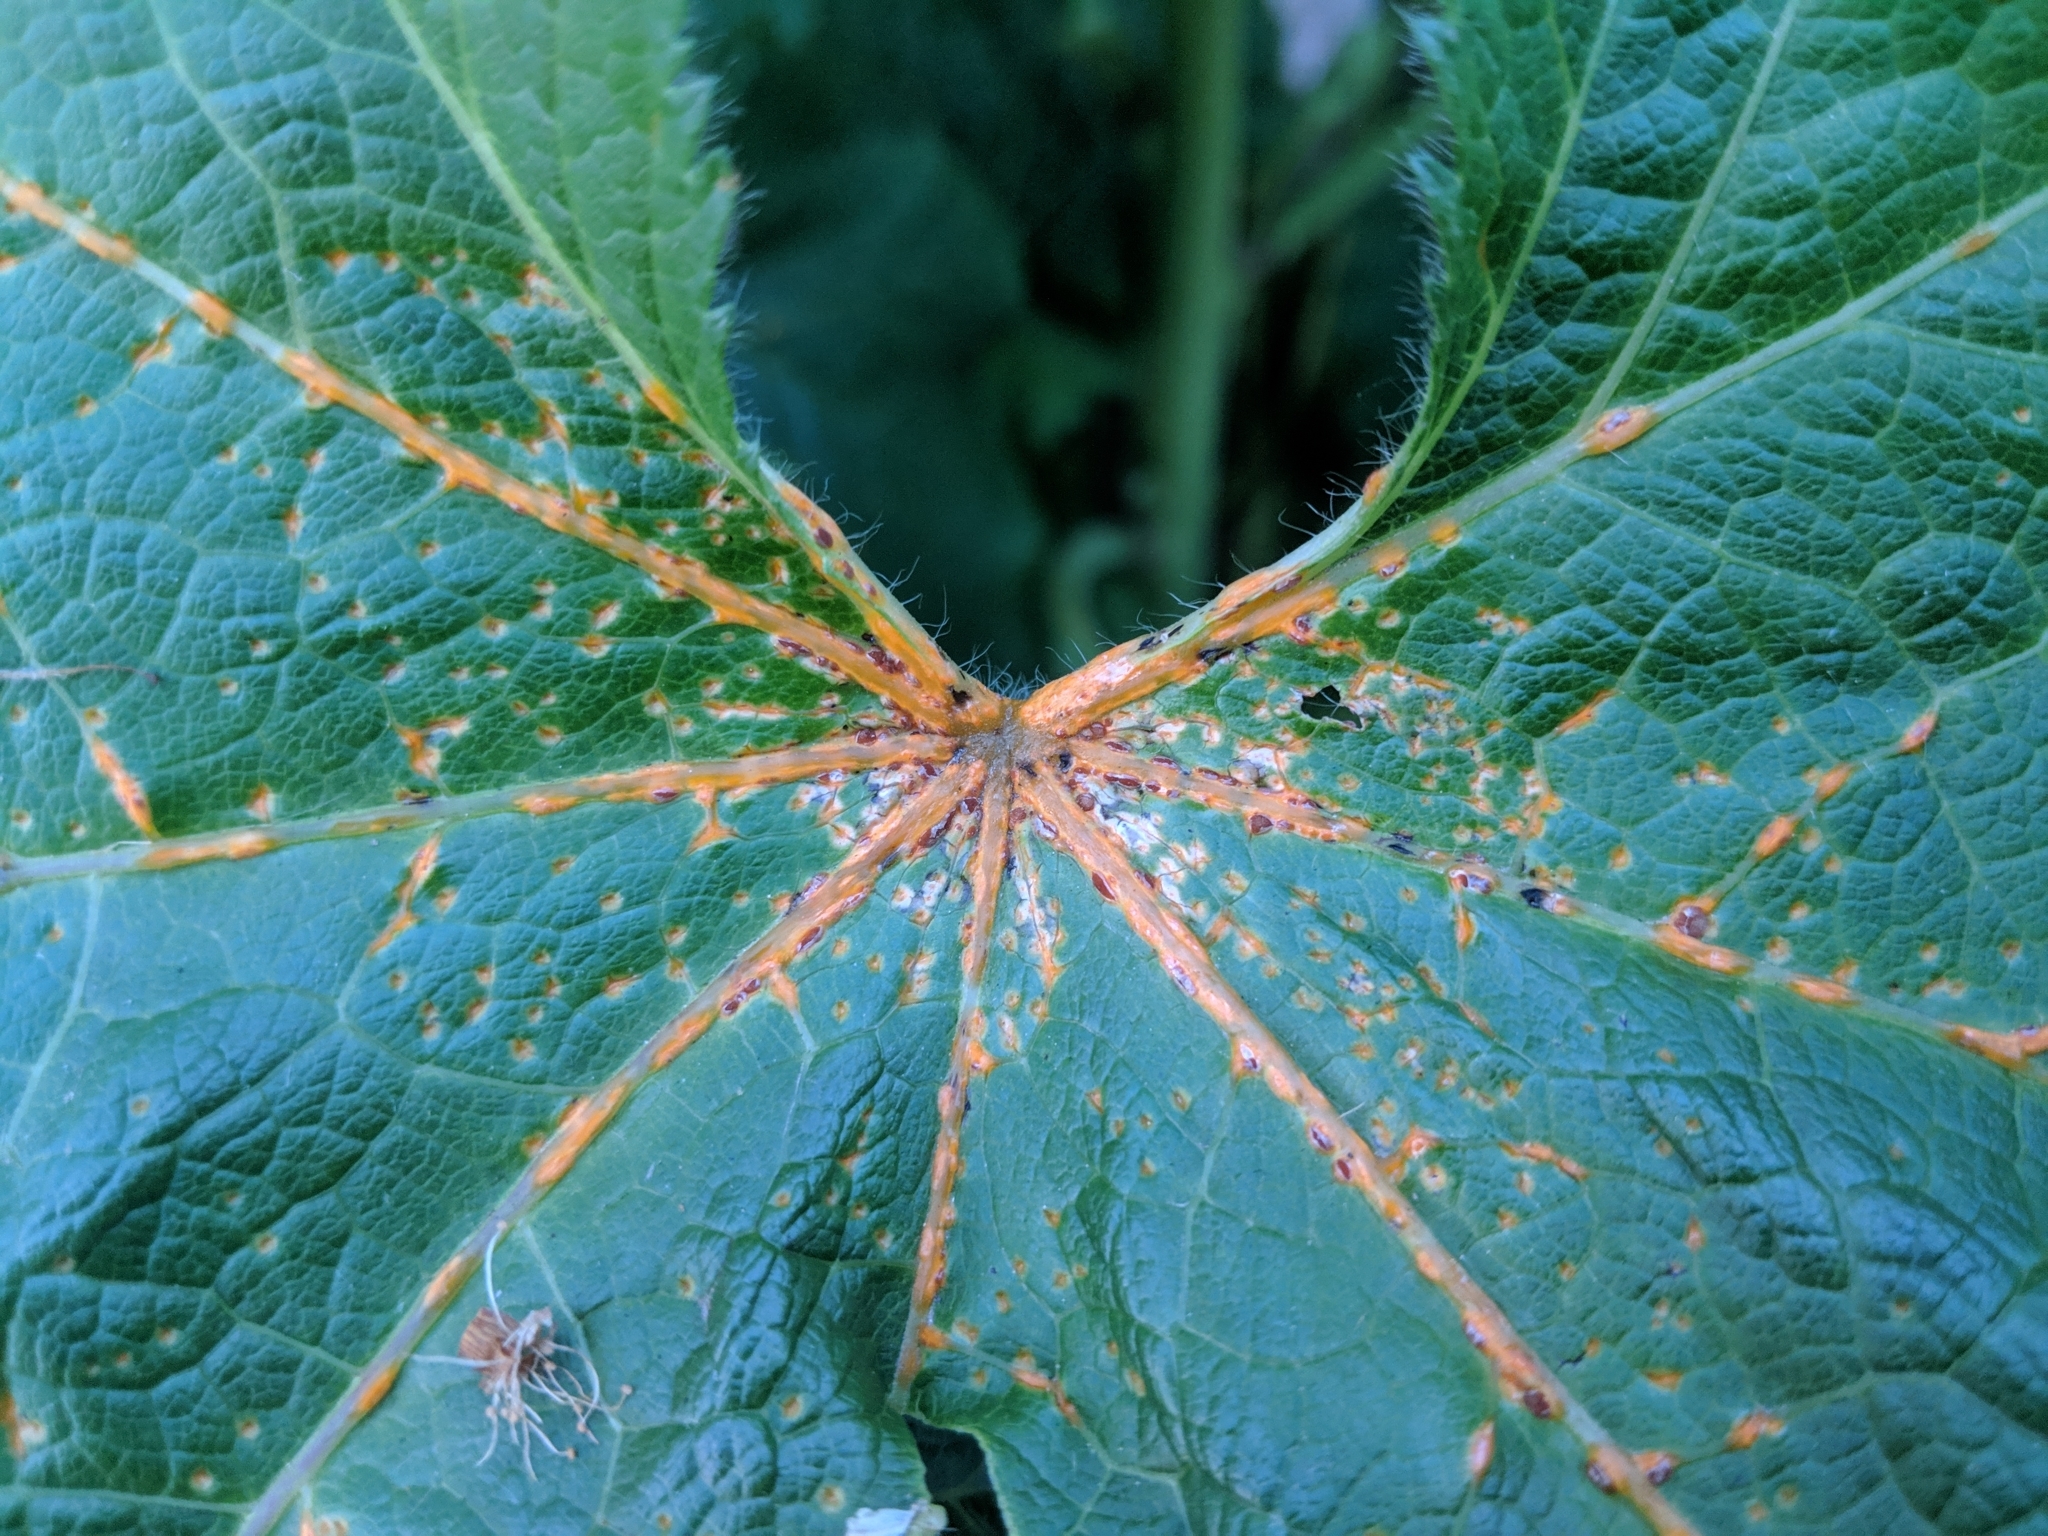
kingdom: Fungi
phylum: Basidiomycota
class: Pucciniomycetes
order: Pucciniales
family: Pucciniaceae
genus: Puccinia
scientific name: Puccinia malvacearum
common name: Hollyhock rust
